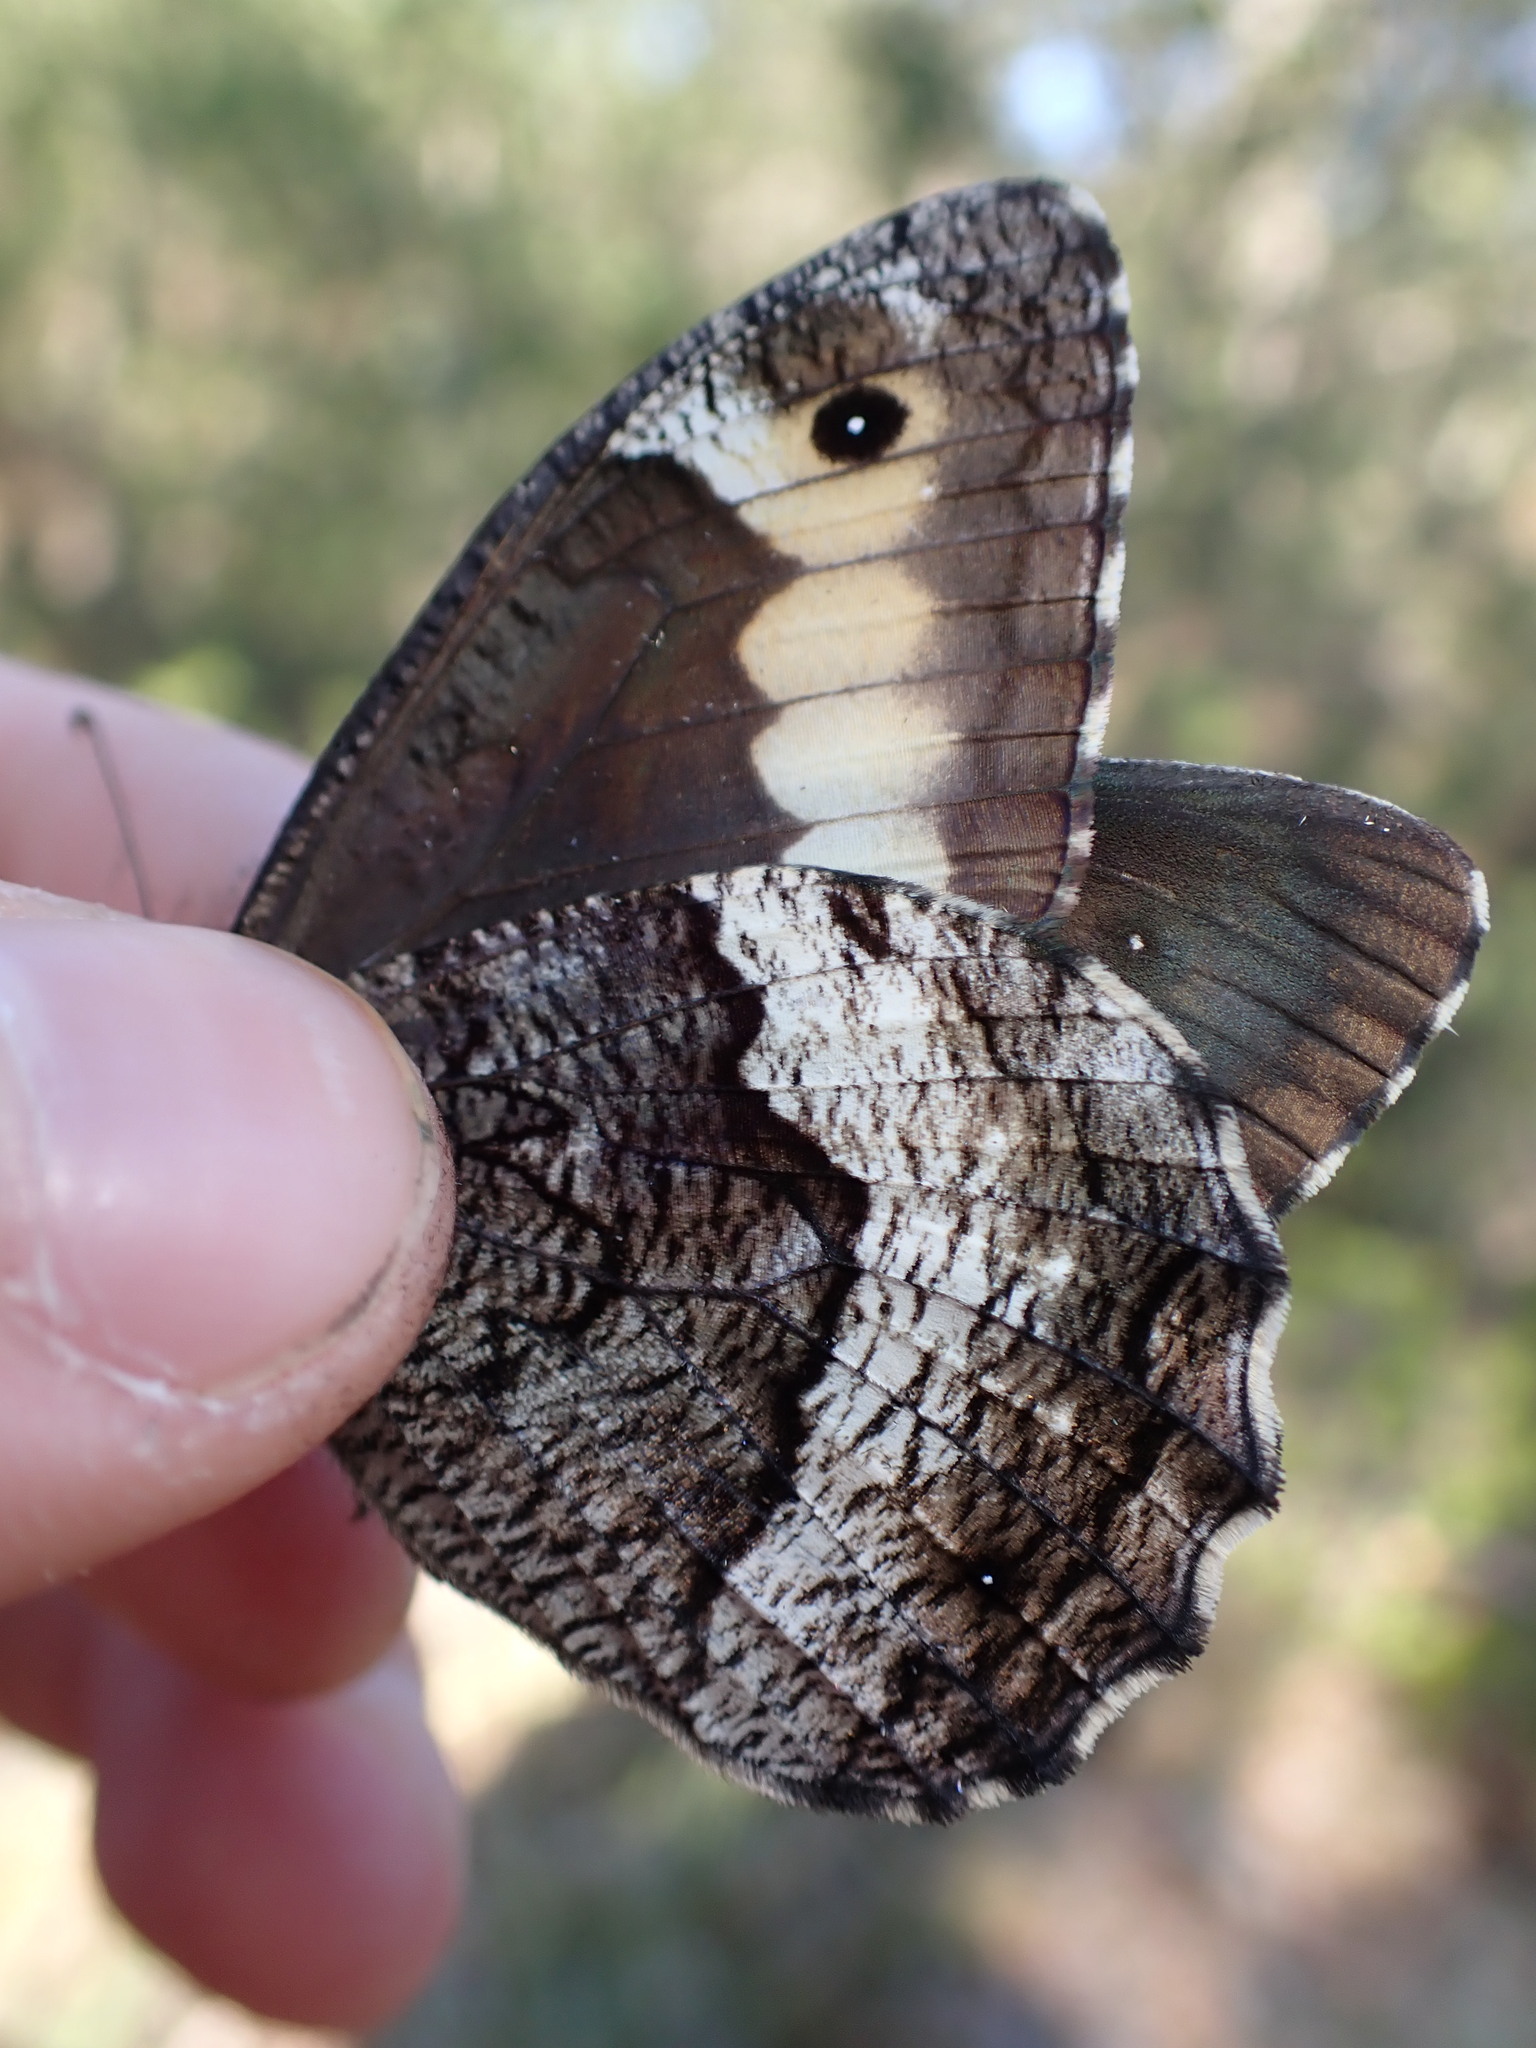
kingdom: Animalia
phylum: Arthropoda
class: Insecta
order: Lepidoptera
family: Nymphalidae
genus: Hipparchia
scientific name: Hipparchia fagi
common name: Woodland grayling
